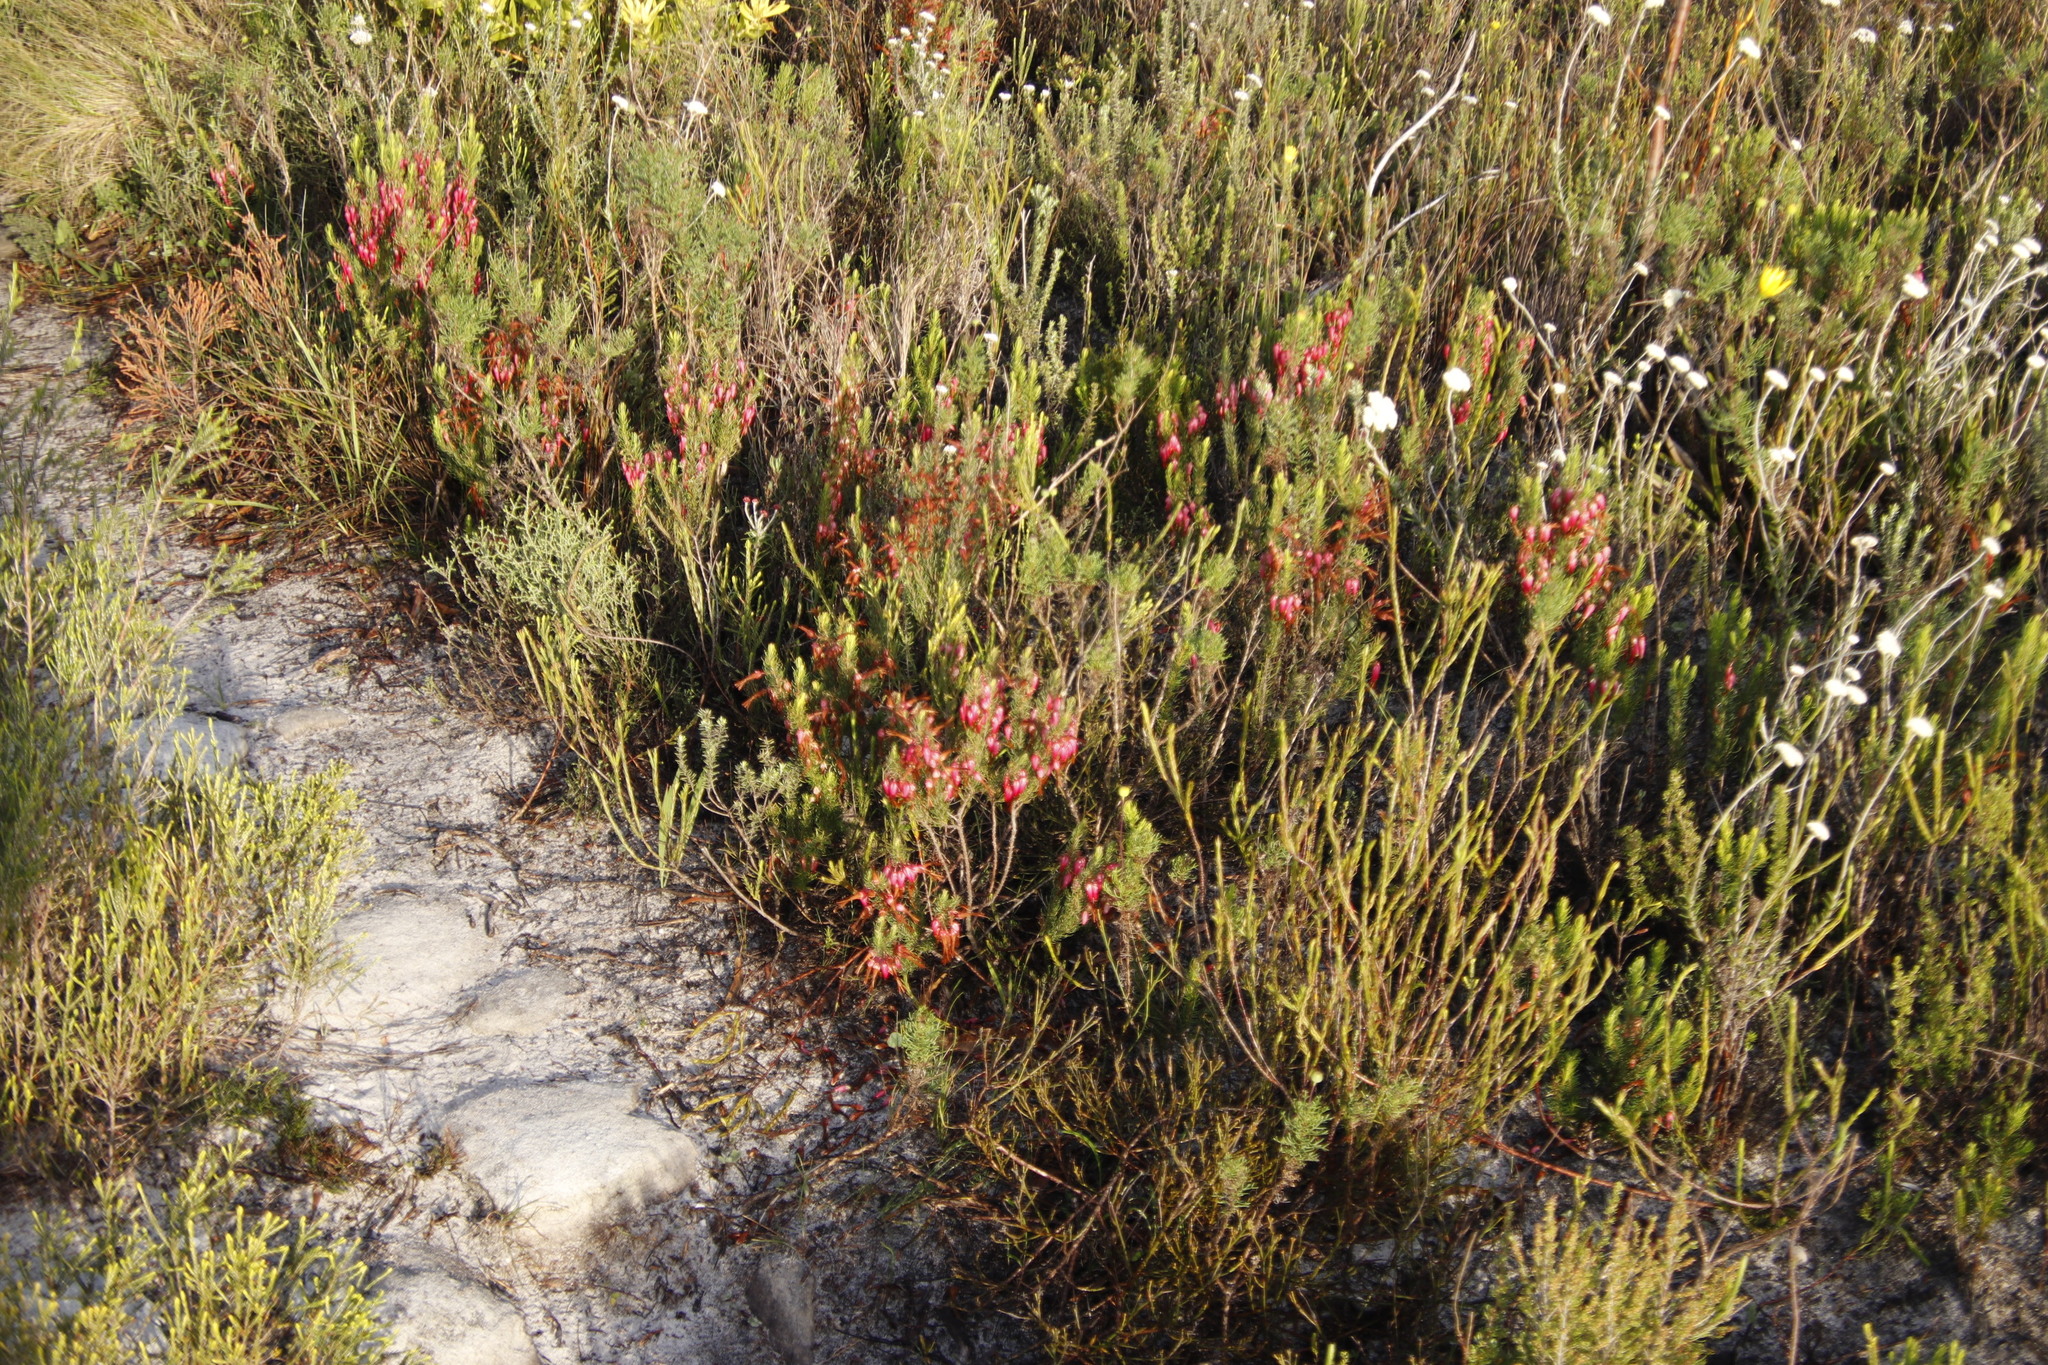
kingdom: Plantae
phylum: Tracheophyta
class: Magnoliopsida
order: Ericales
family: Ericaceae
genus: Erica
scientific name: Erica plukenetii
